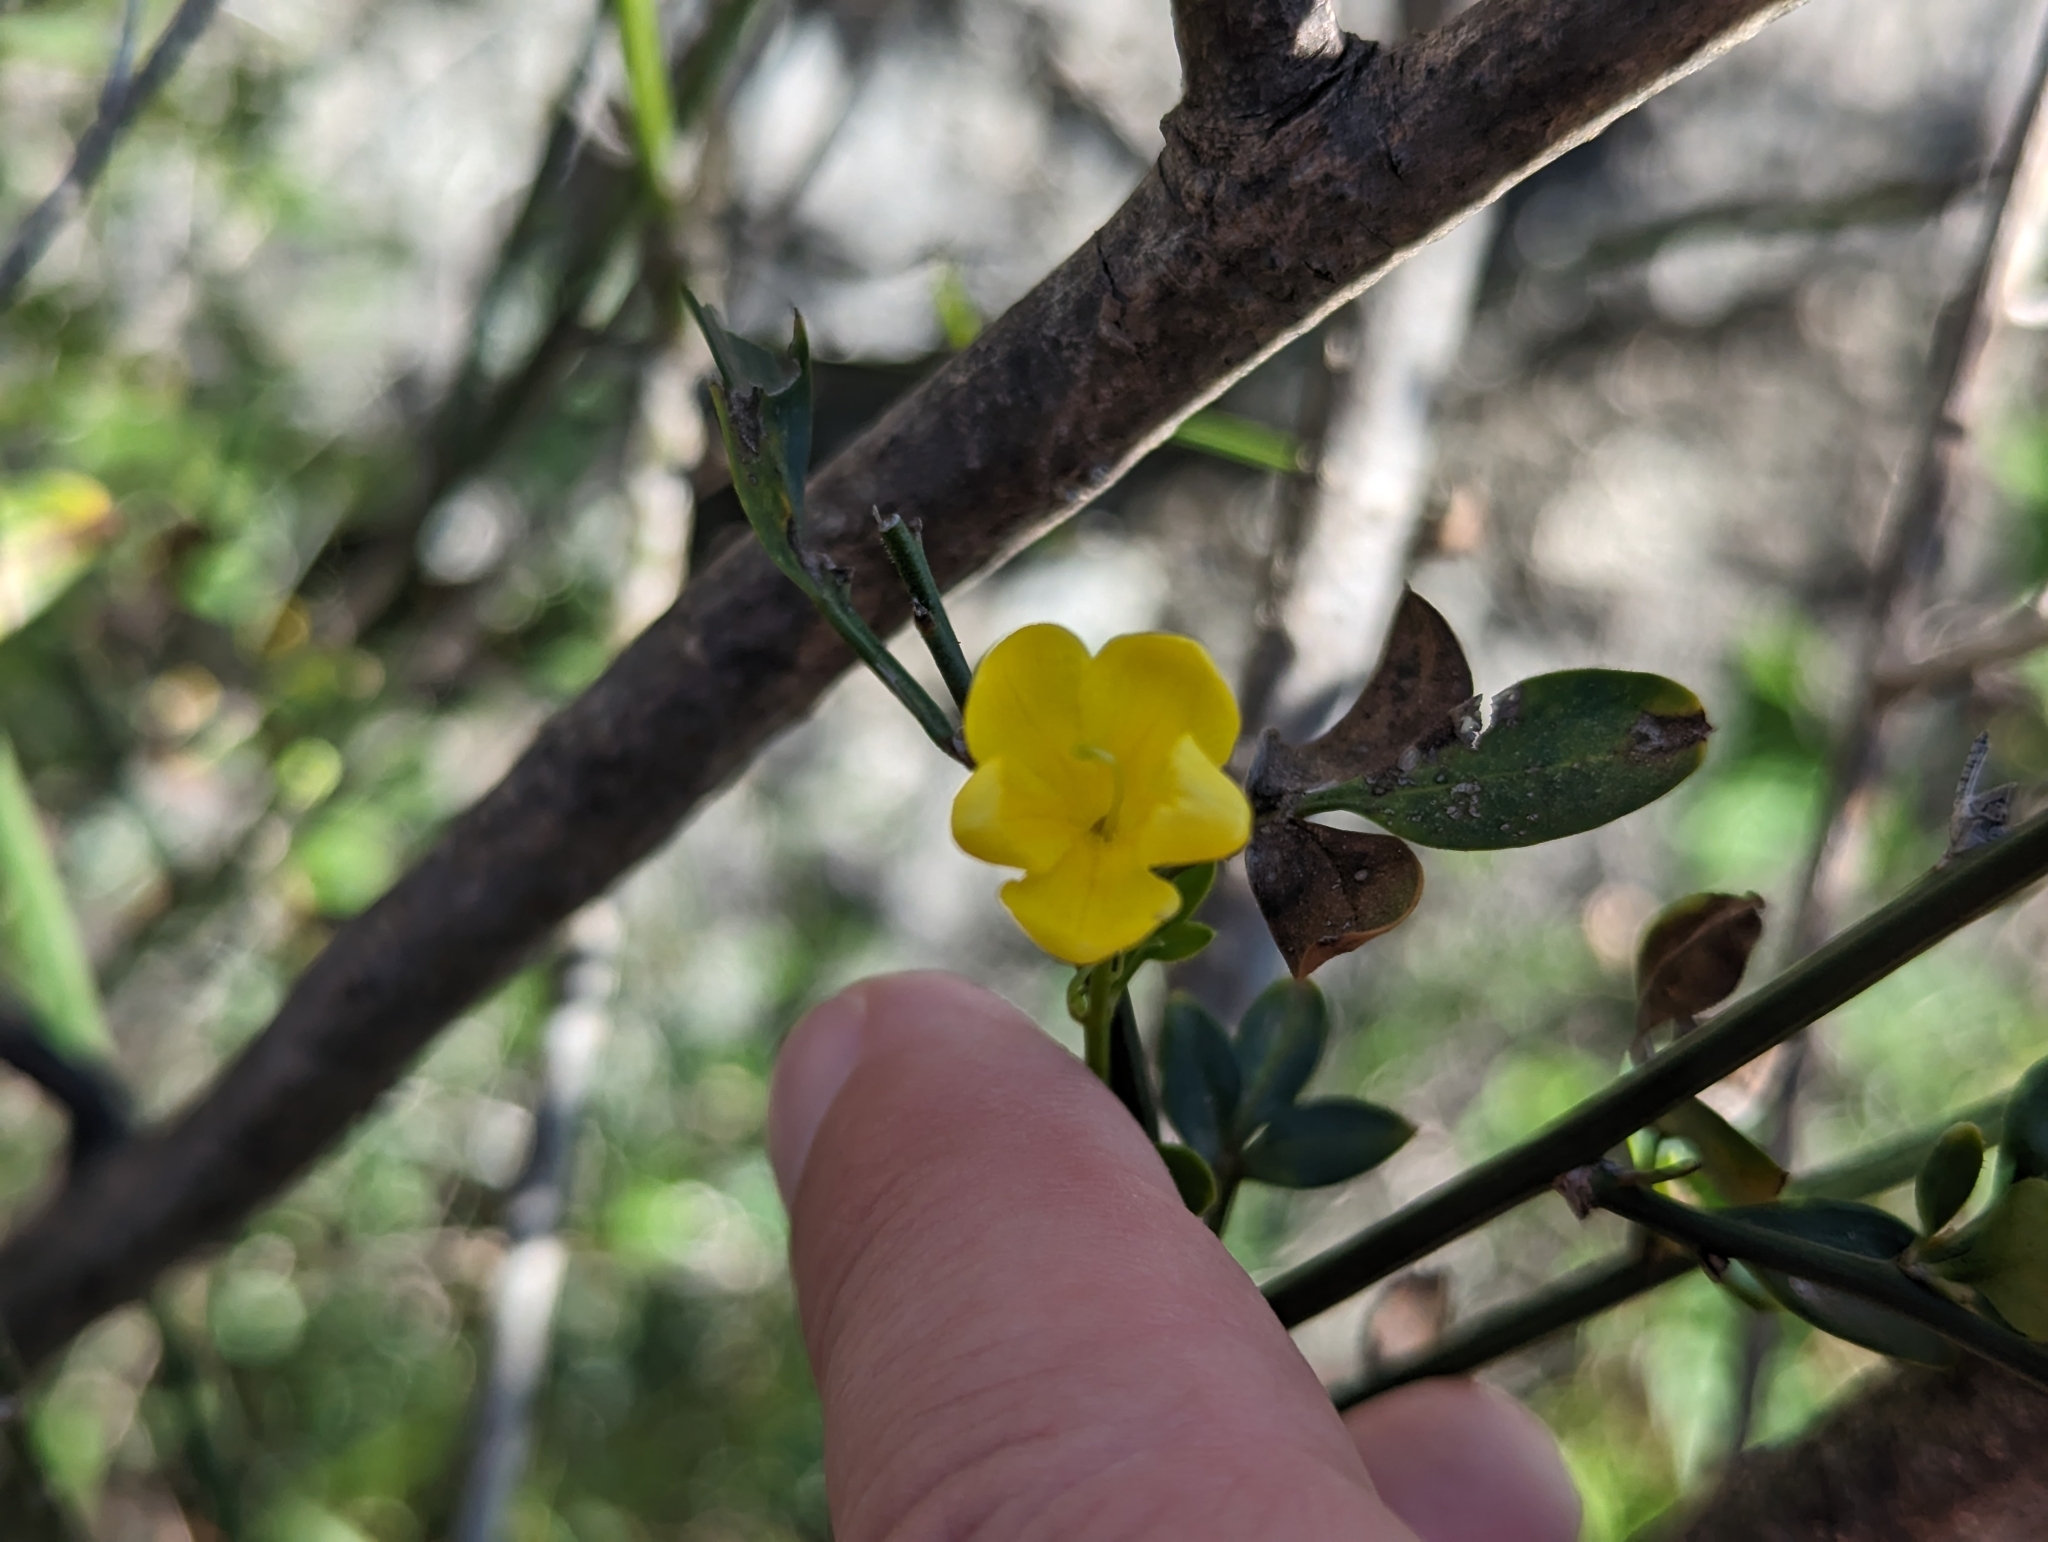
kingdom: Plantae
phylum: Tracheophyta
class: Magnoliopsida
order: Lamiales
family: Oleaceae
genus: Chrysojasminum
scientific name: Chrysojasminum fruticans
